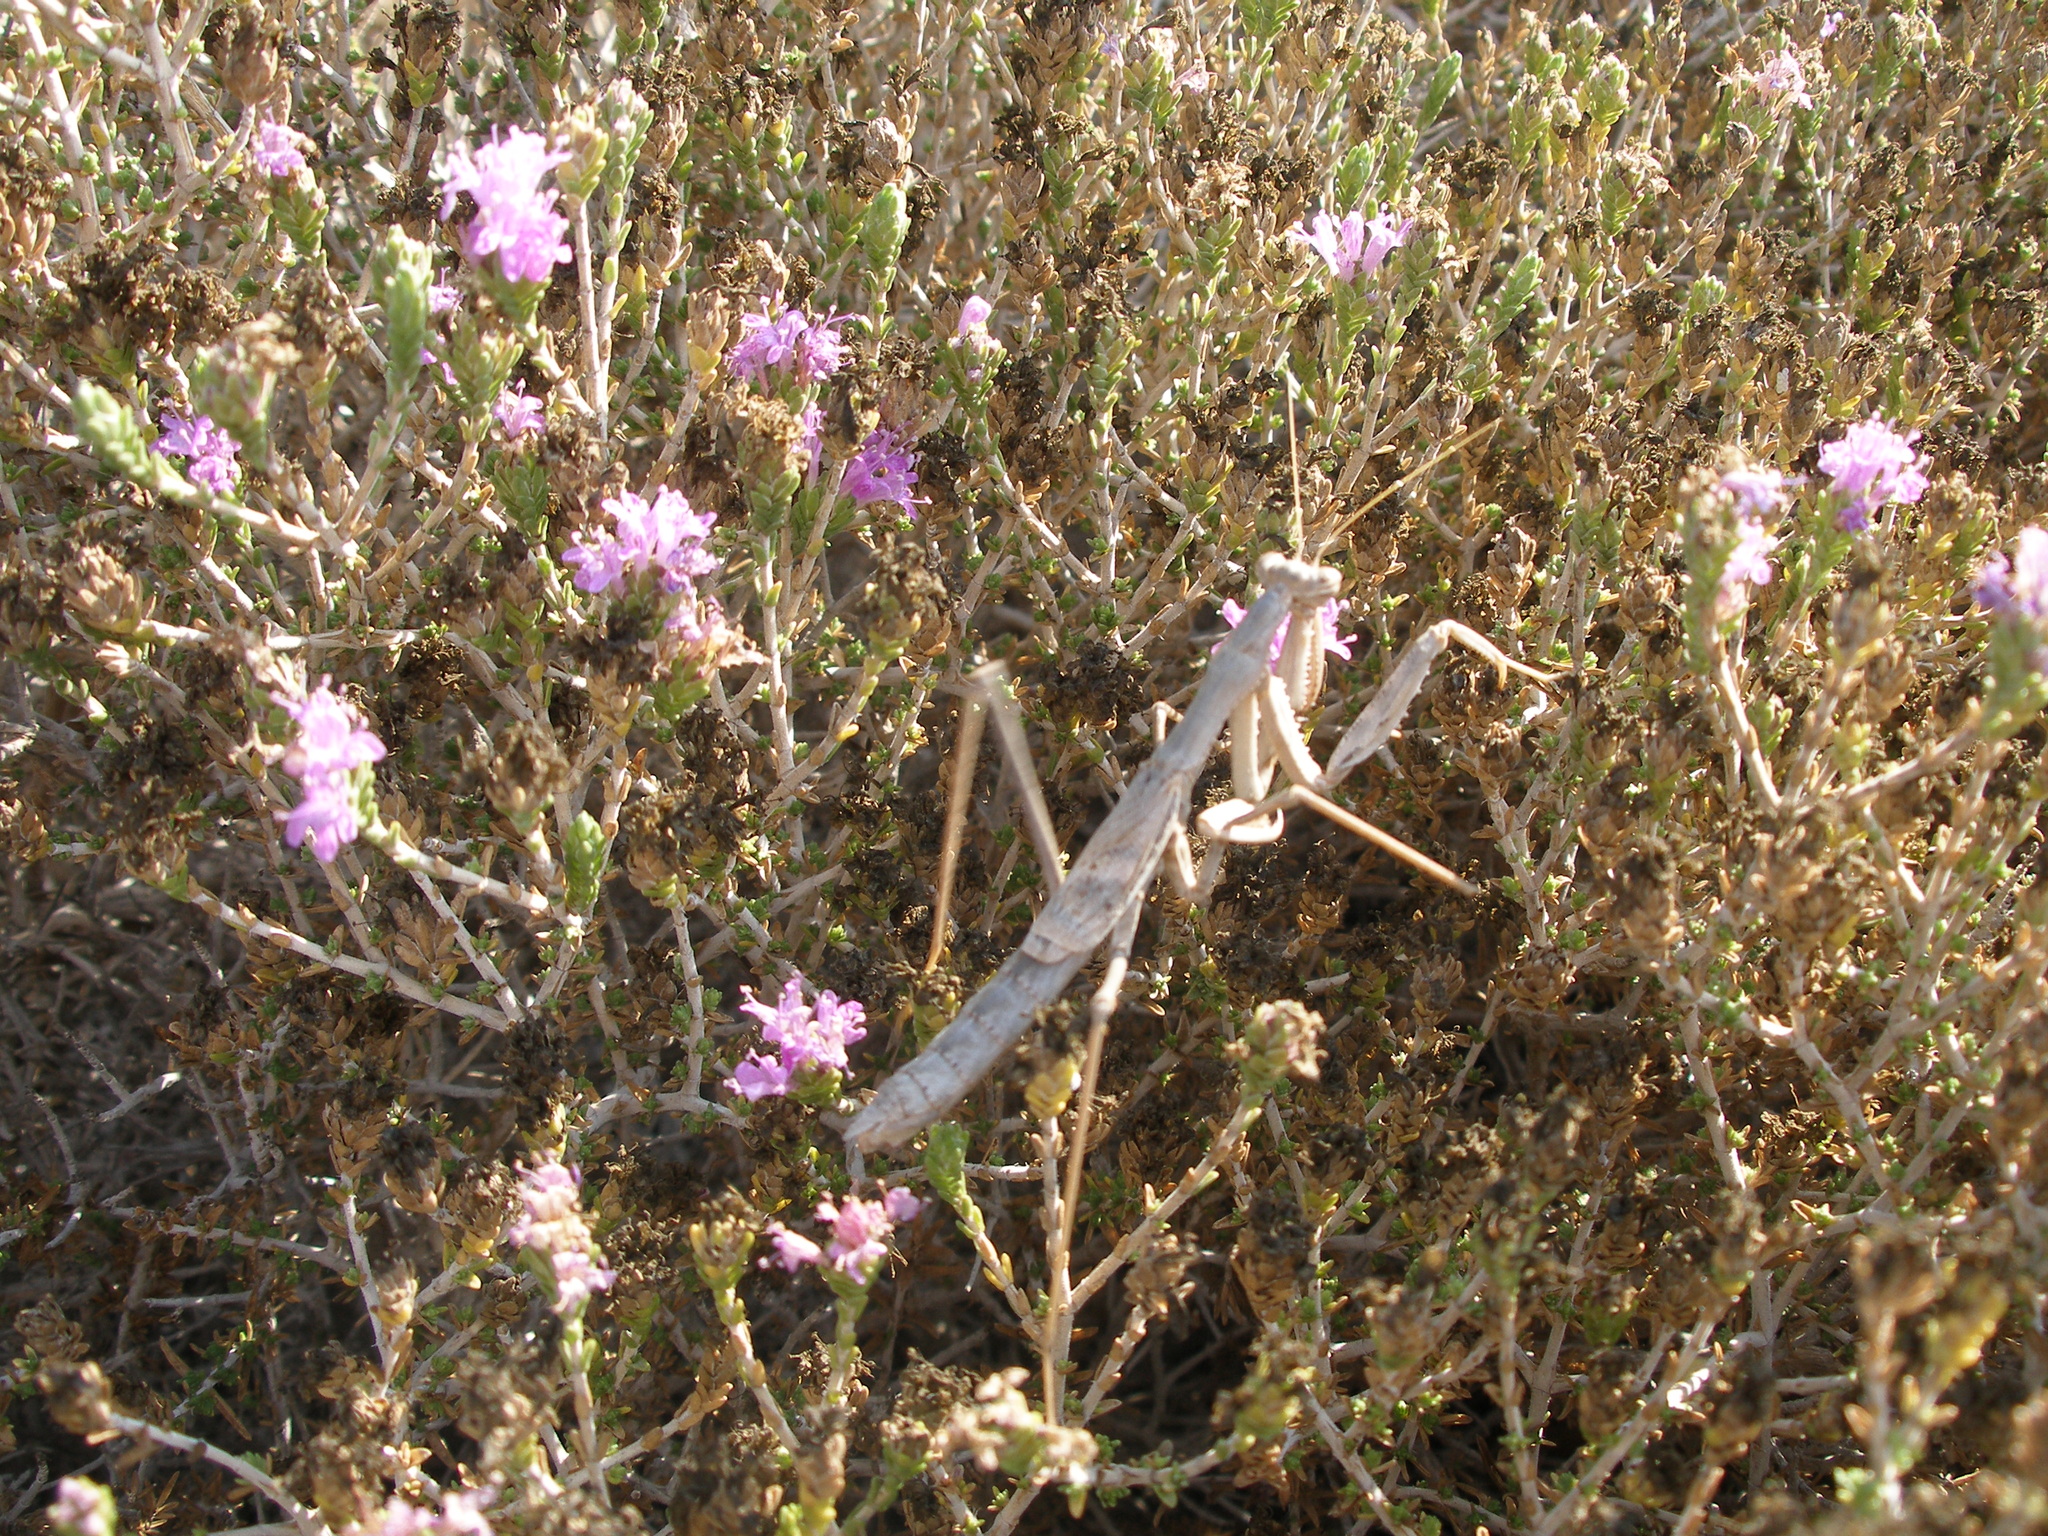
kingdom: Plantae
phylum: Tracheophyta
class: Magnoliopsida
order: Lamiales
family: Lamiaceae
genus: Thymbra
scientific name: Thymbra capitata
